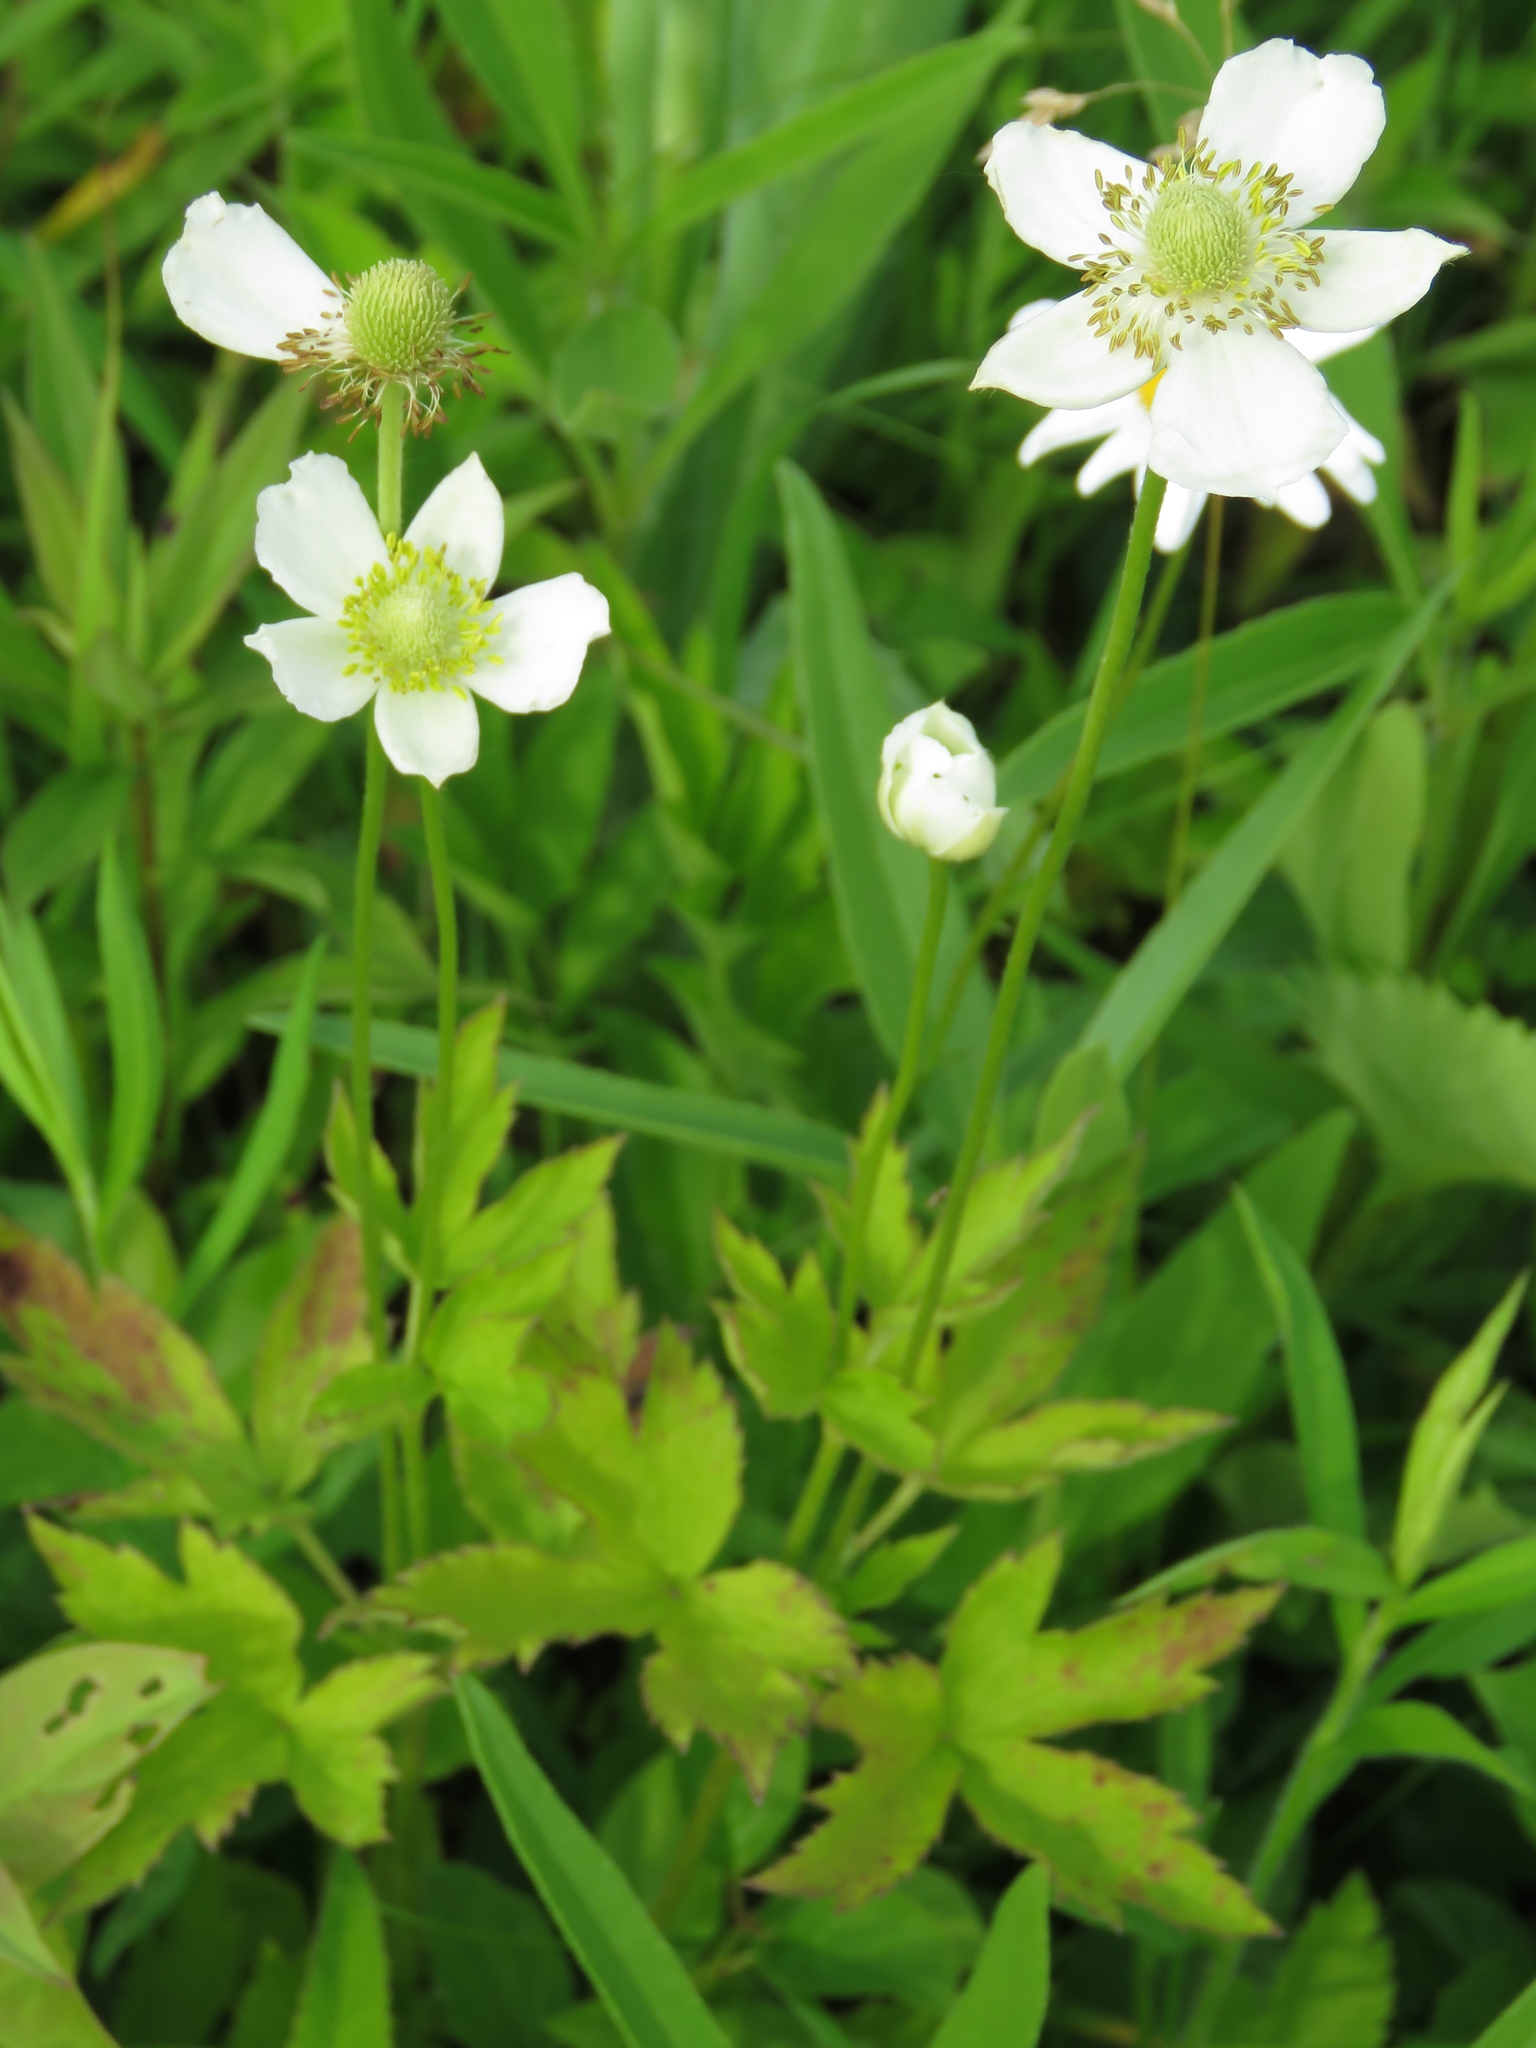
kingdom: Plantae
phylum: Tracheophyta
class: Magnoliopsida
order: Ranunculales
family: Ranunculaceae
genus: Anemonastrum
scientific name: Anemonastrum canadense
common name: Canada anemone
